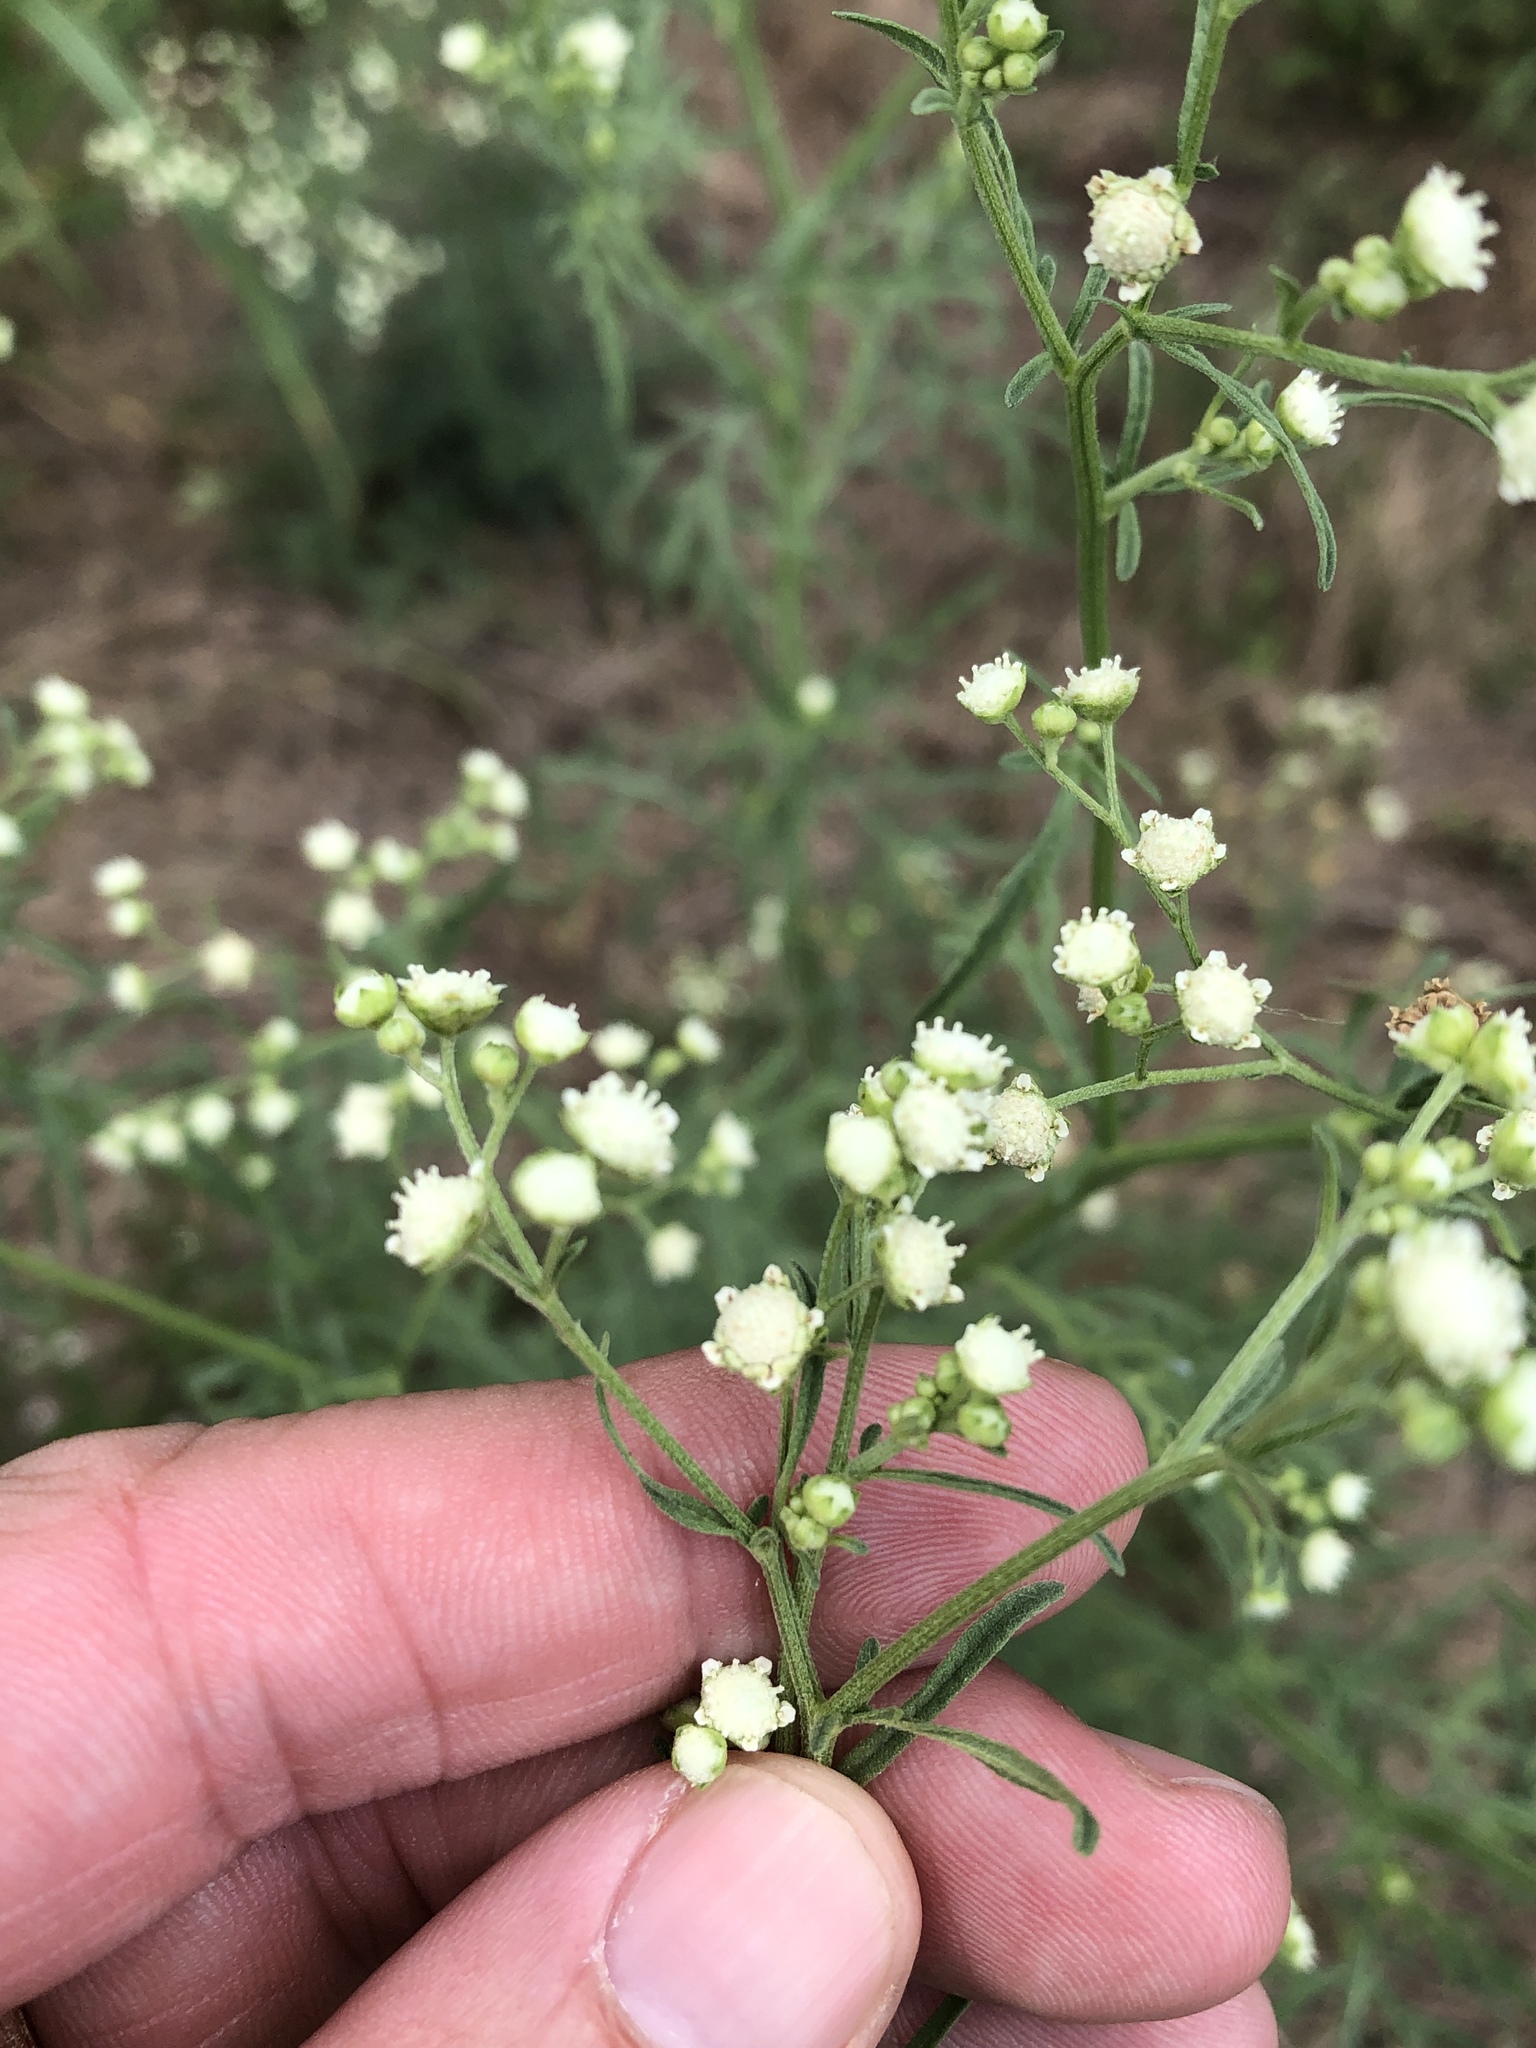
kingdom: Plantae
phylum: Tracheophyta
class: Magnoliopsida
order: Asterales
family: Asteraceae
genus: Parthenium
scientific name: Parthenium hysterophorus
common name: Santa maria feverfew
